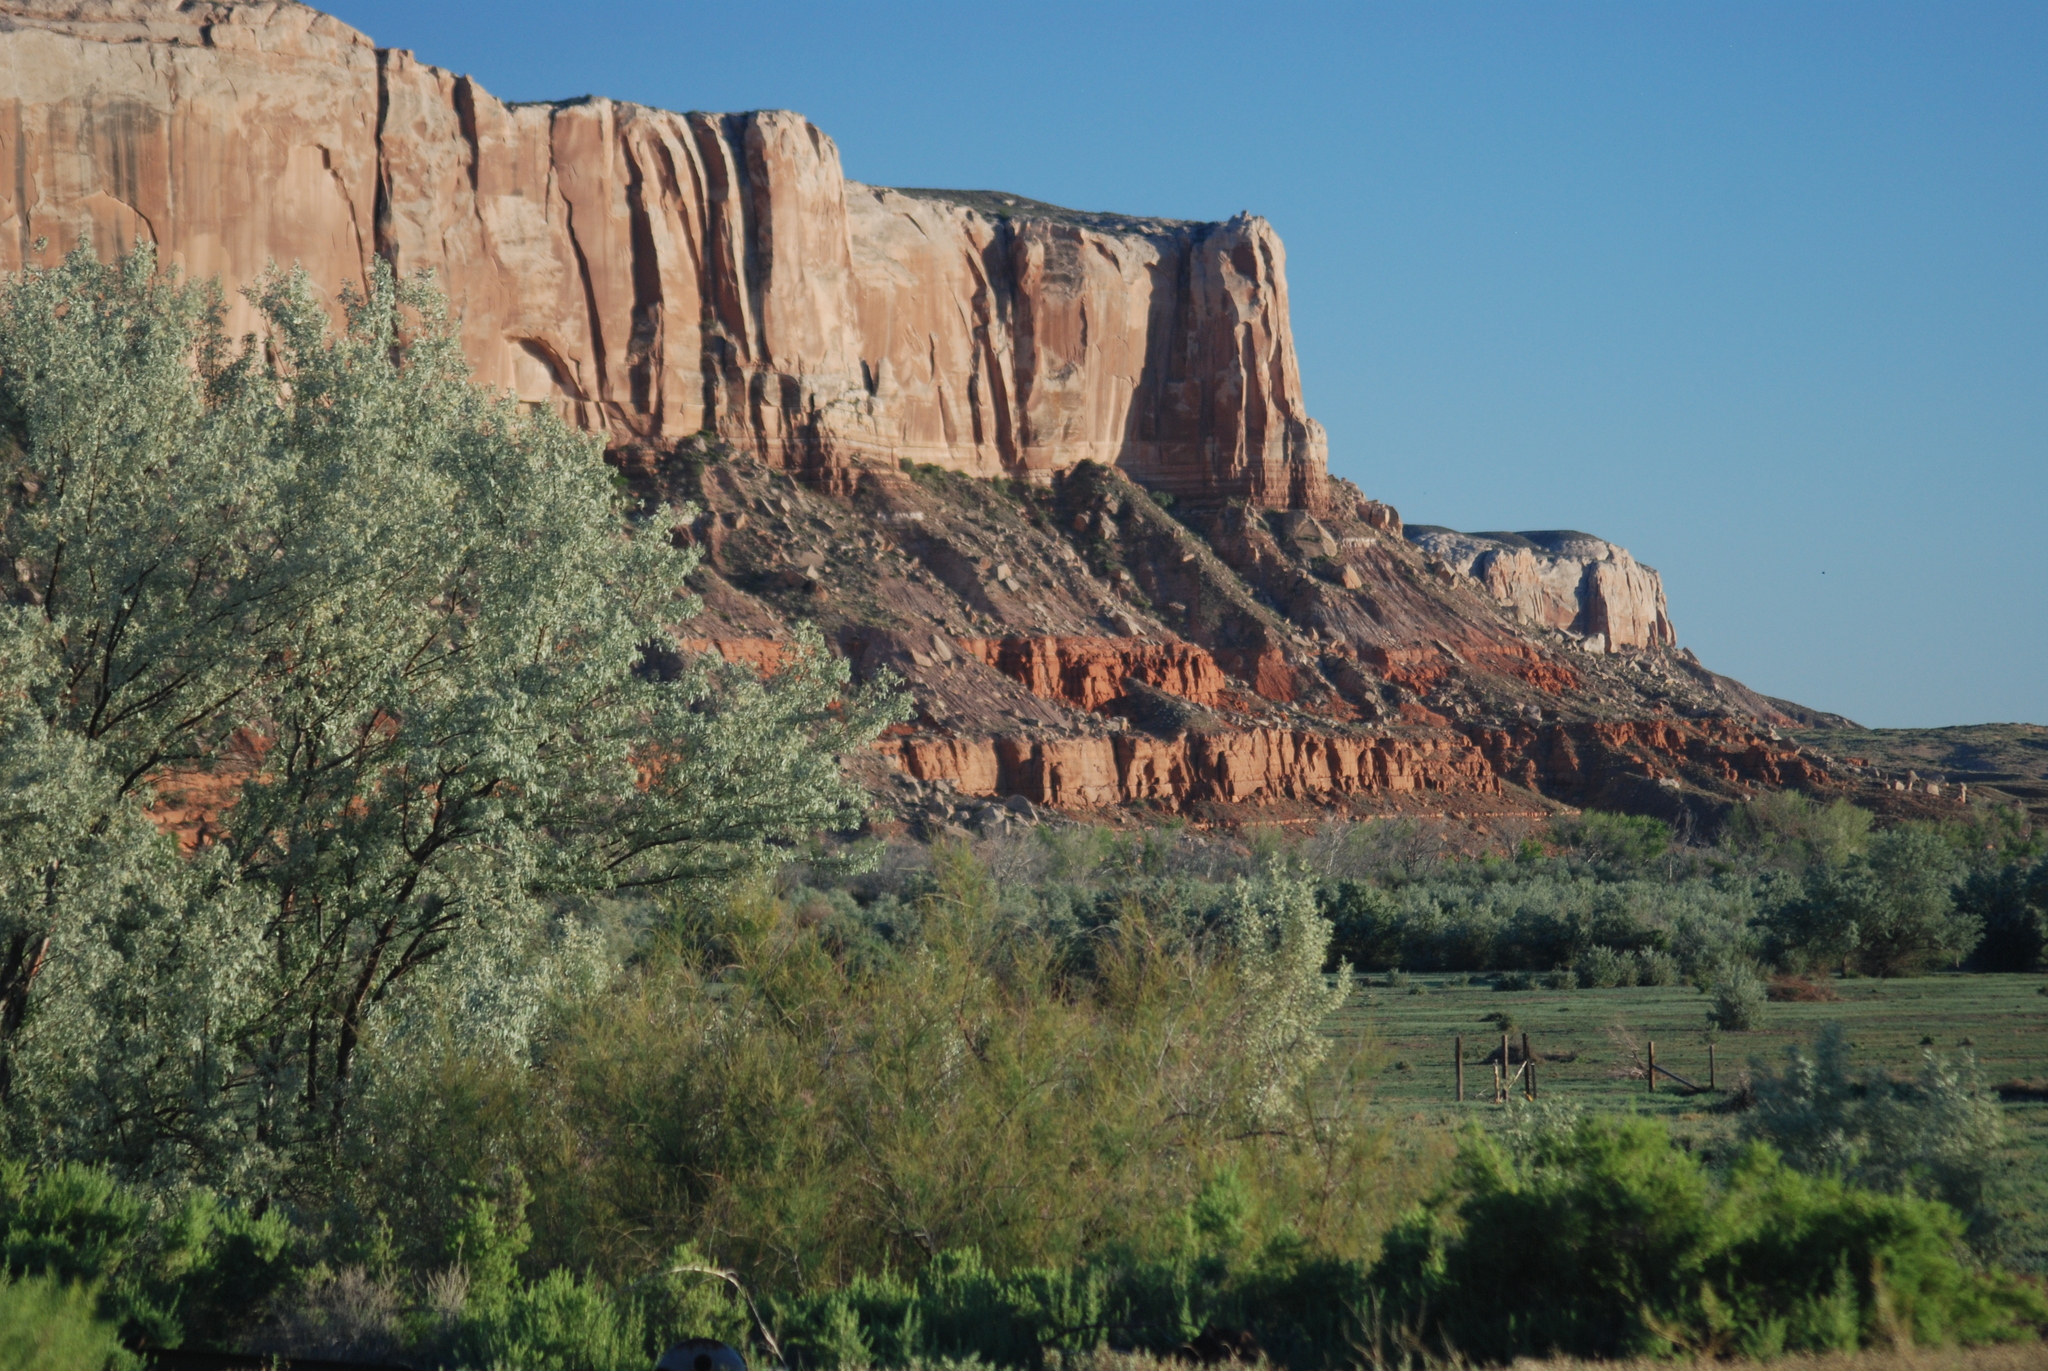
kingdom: Plantae
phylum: Tracheophyta
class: Magnoliopsida
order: Rosales
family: Elaeagnaceae
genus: Elaeagnus
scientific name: Elaeagnus angustifolia
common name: Russian olive
